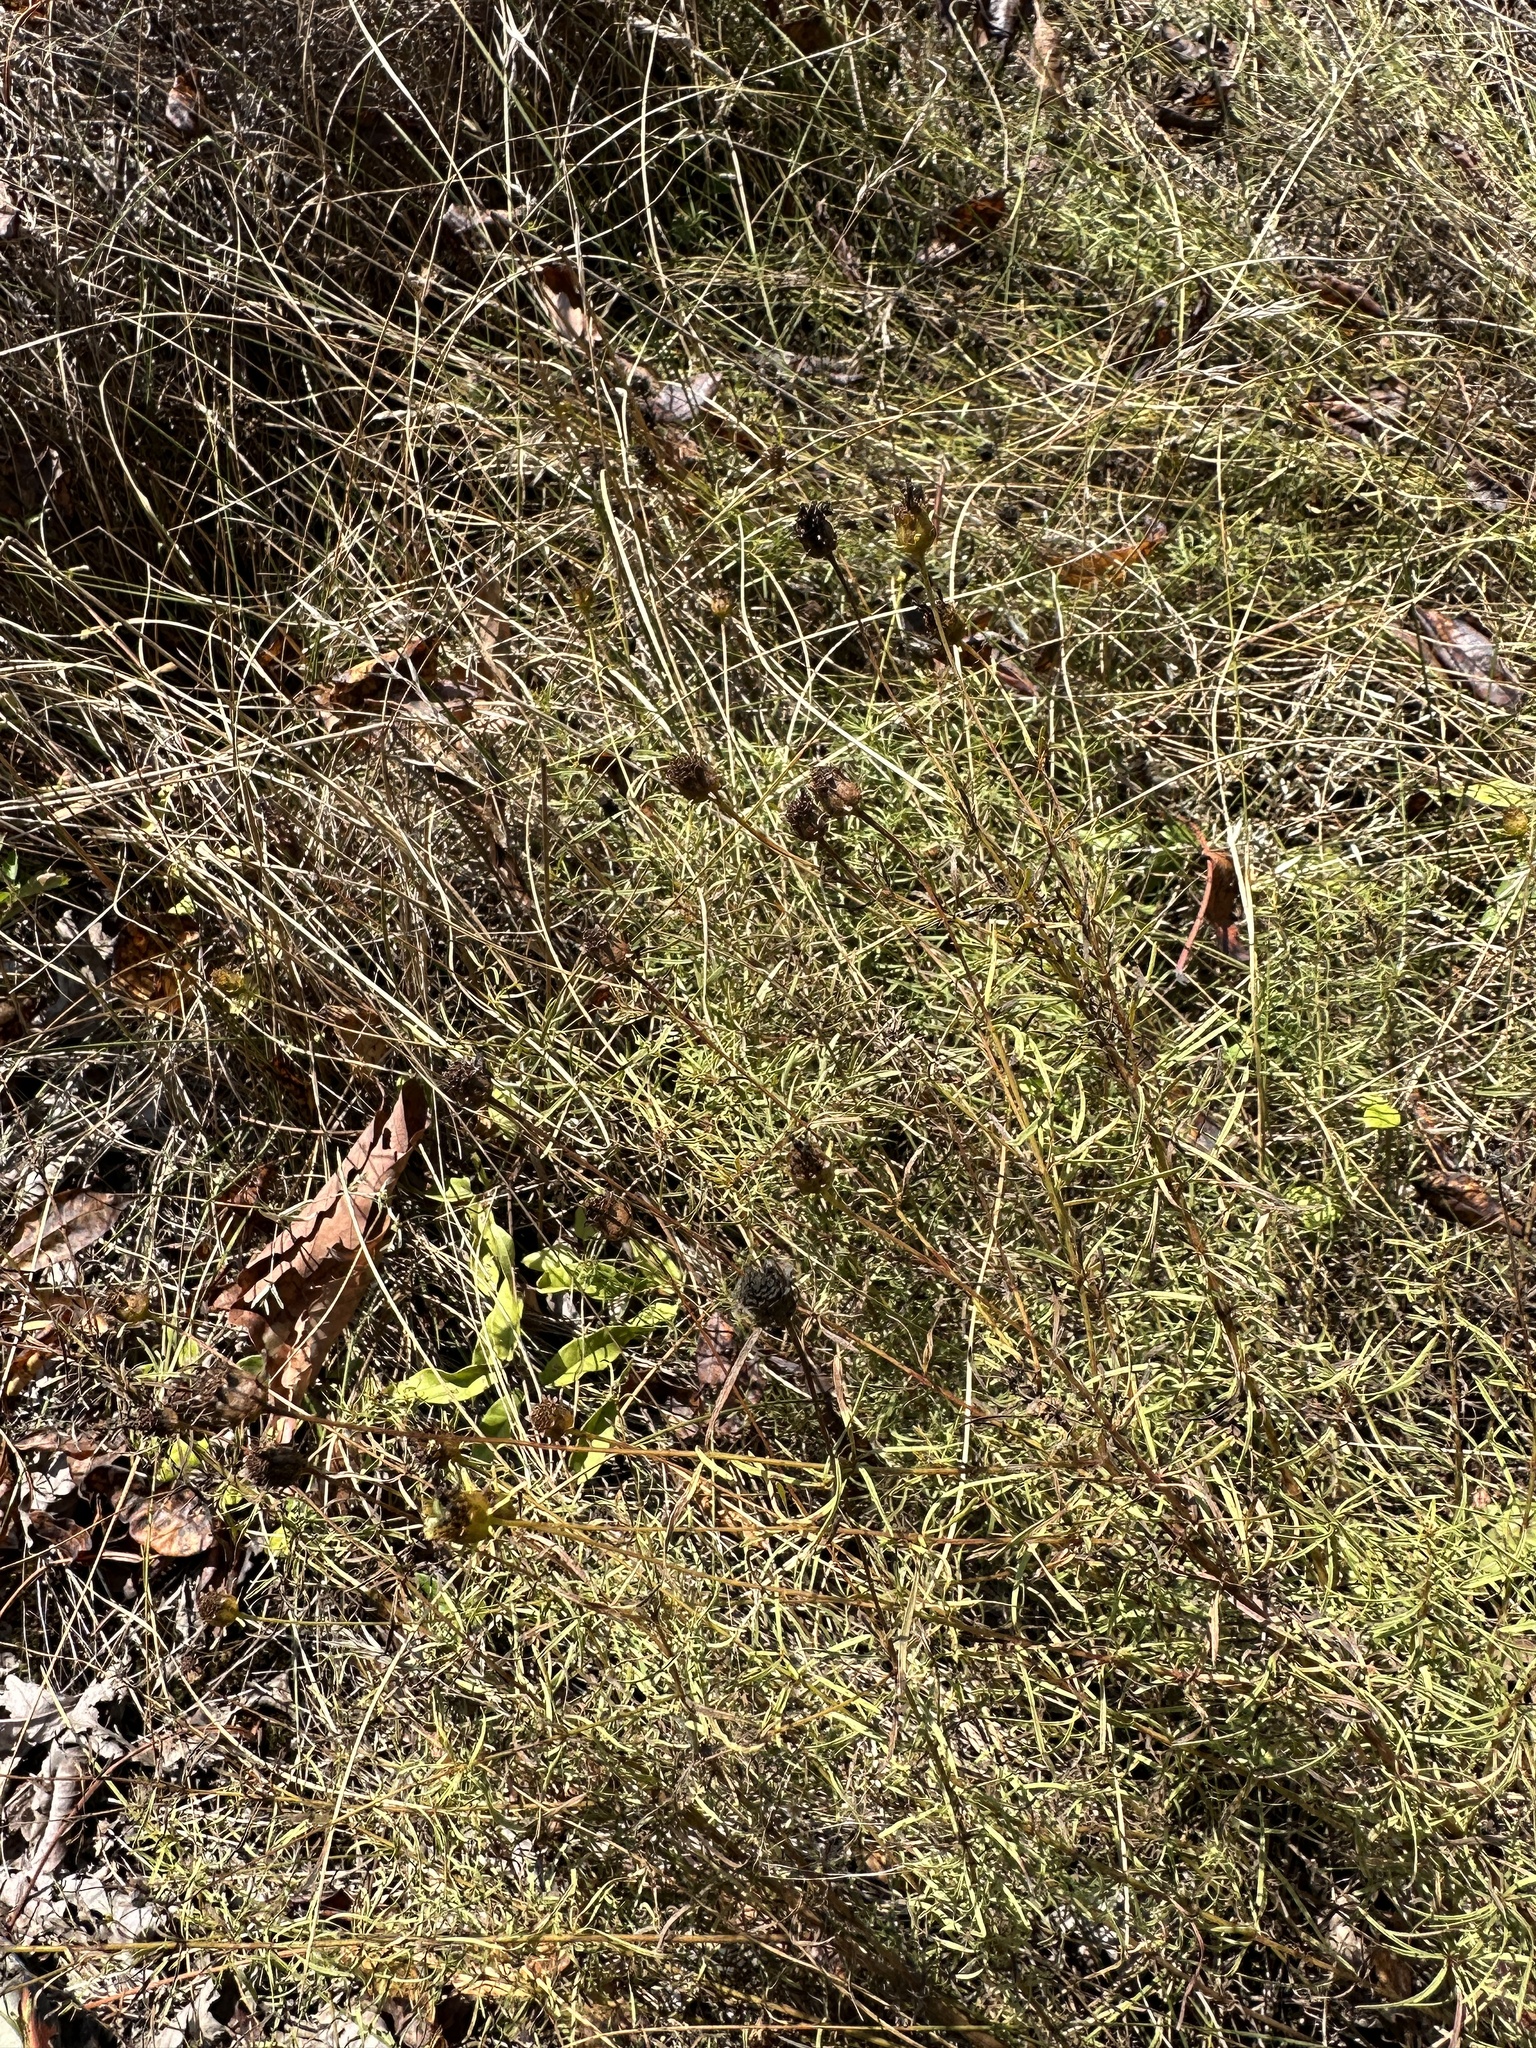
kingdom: Plantae
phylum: Tracheophyta
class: Magnoliopsida
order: Asterales
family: Asteraceae
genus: Coreopsis
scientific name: Coreopsis pulchra
